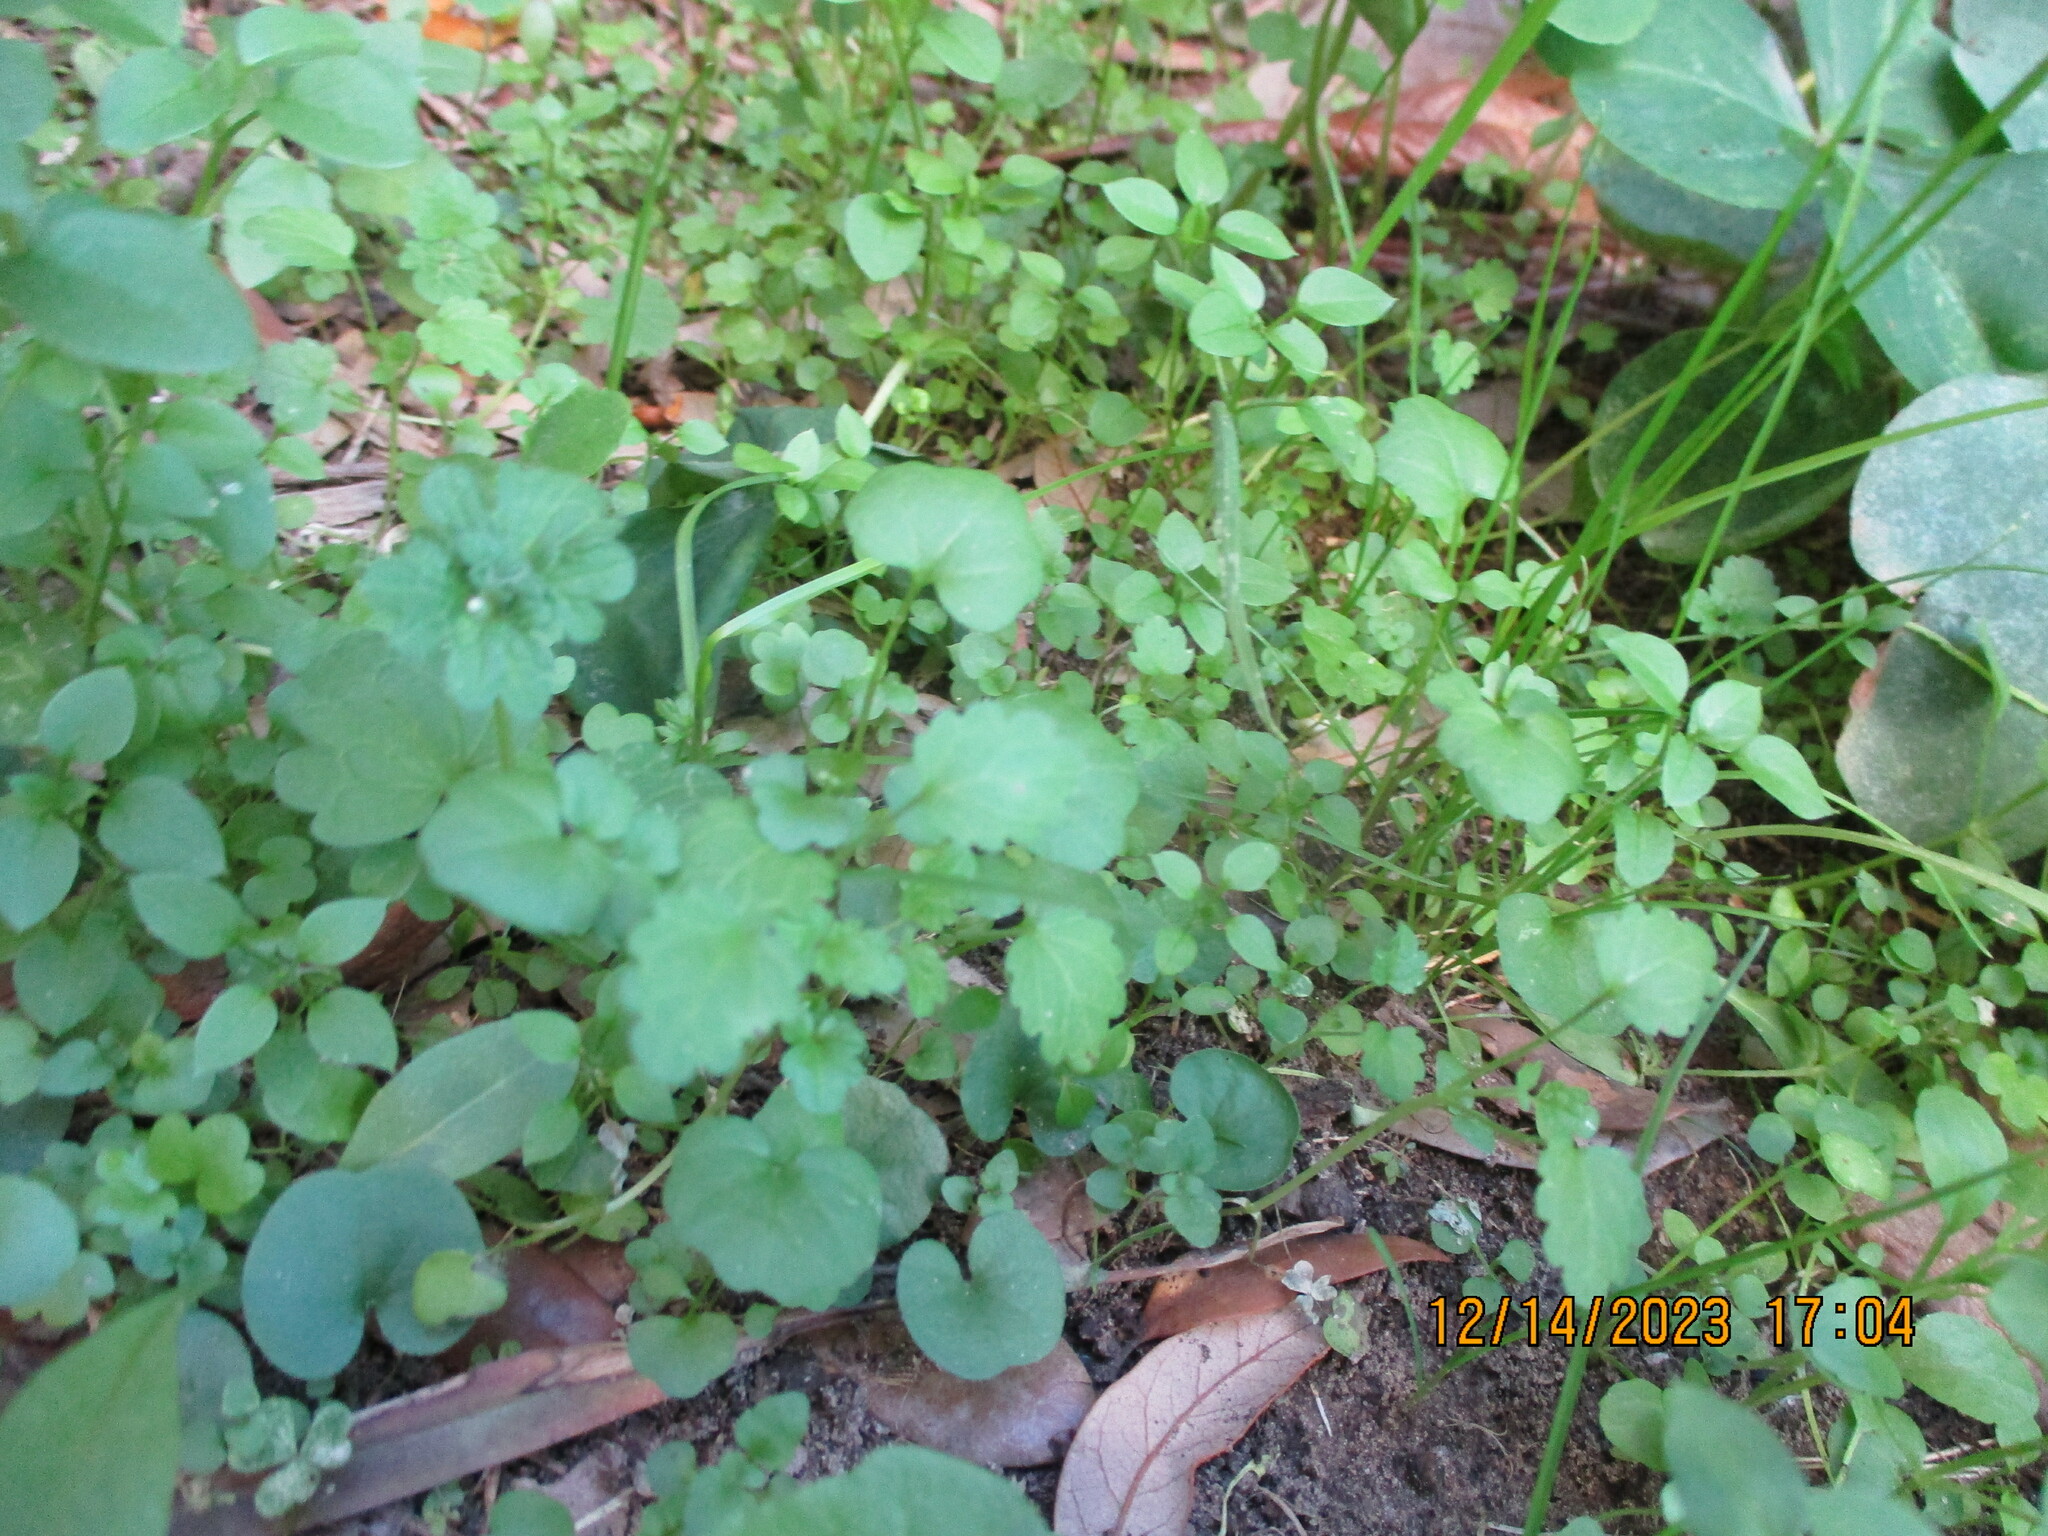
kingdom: Plantae
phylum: Tracheophyta
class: Magnoliopsida
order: Brassicales
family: Brassicaceae
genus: Cardamine
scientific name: Cardamine hirsuta
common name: Hairy bittercress
